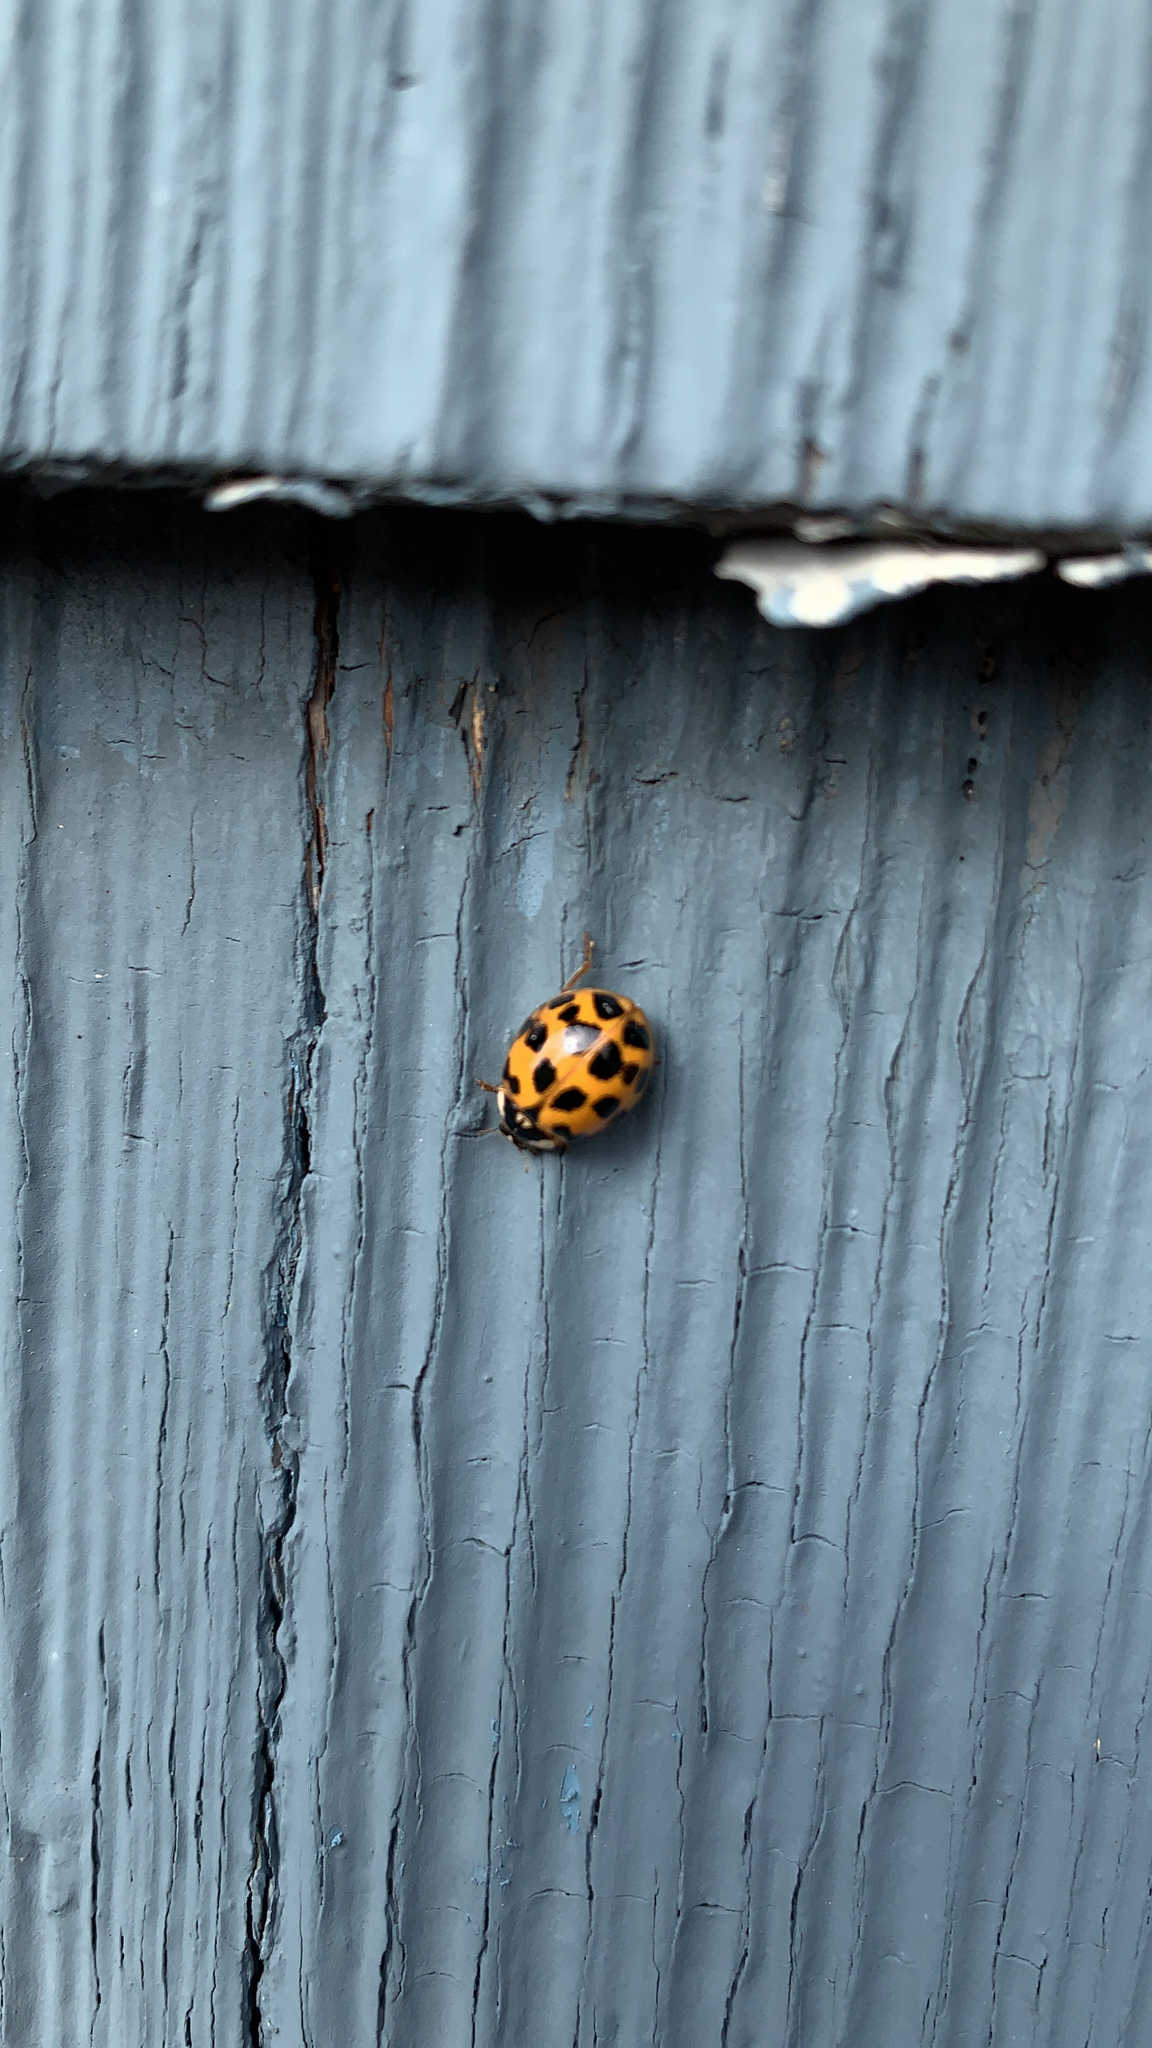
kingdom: Animalia
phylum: Arthropoda
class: Insecta
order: Coleoptera
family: Coccinellidae
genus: Harmonia
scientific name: Harmonia axyridis
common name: Harlequin ladybird
